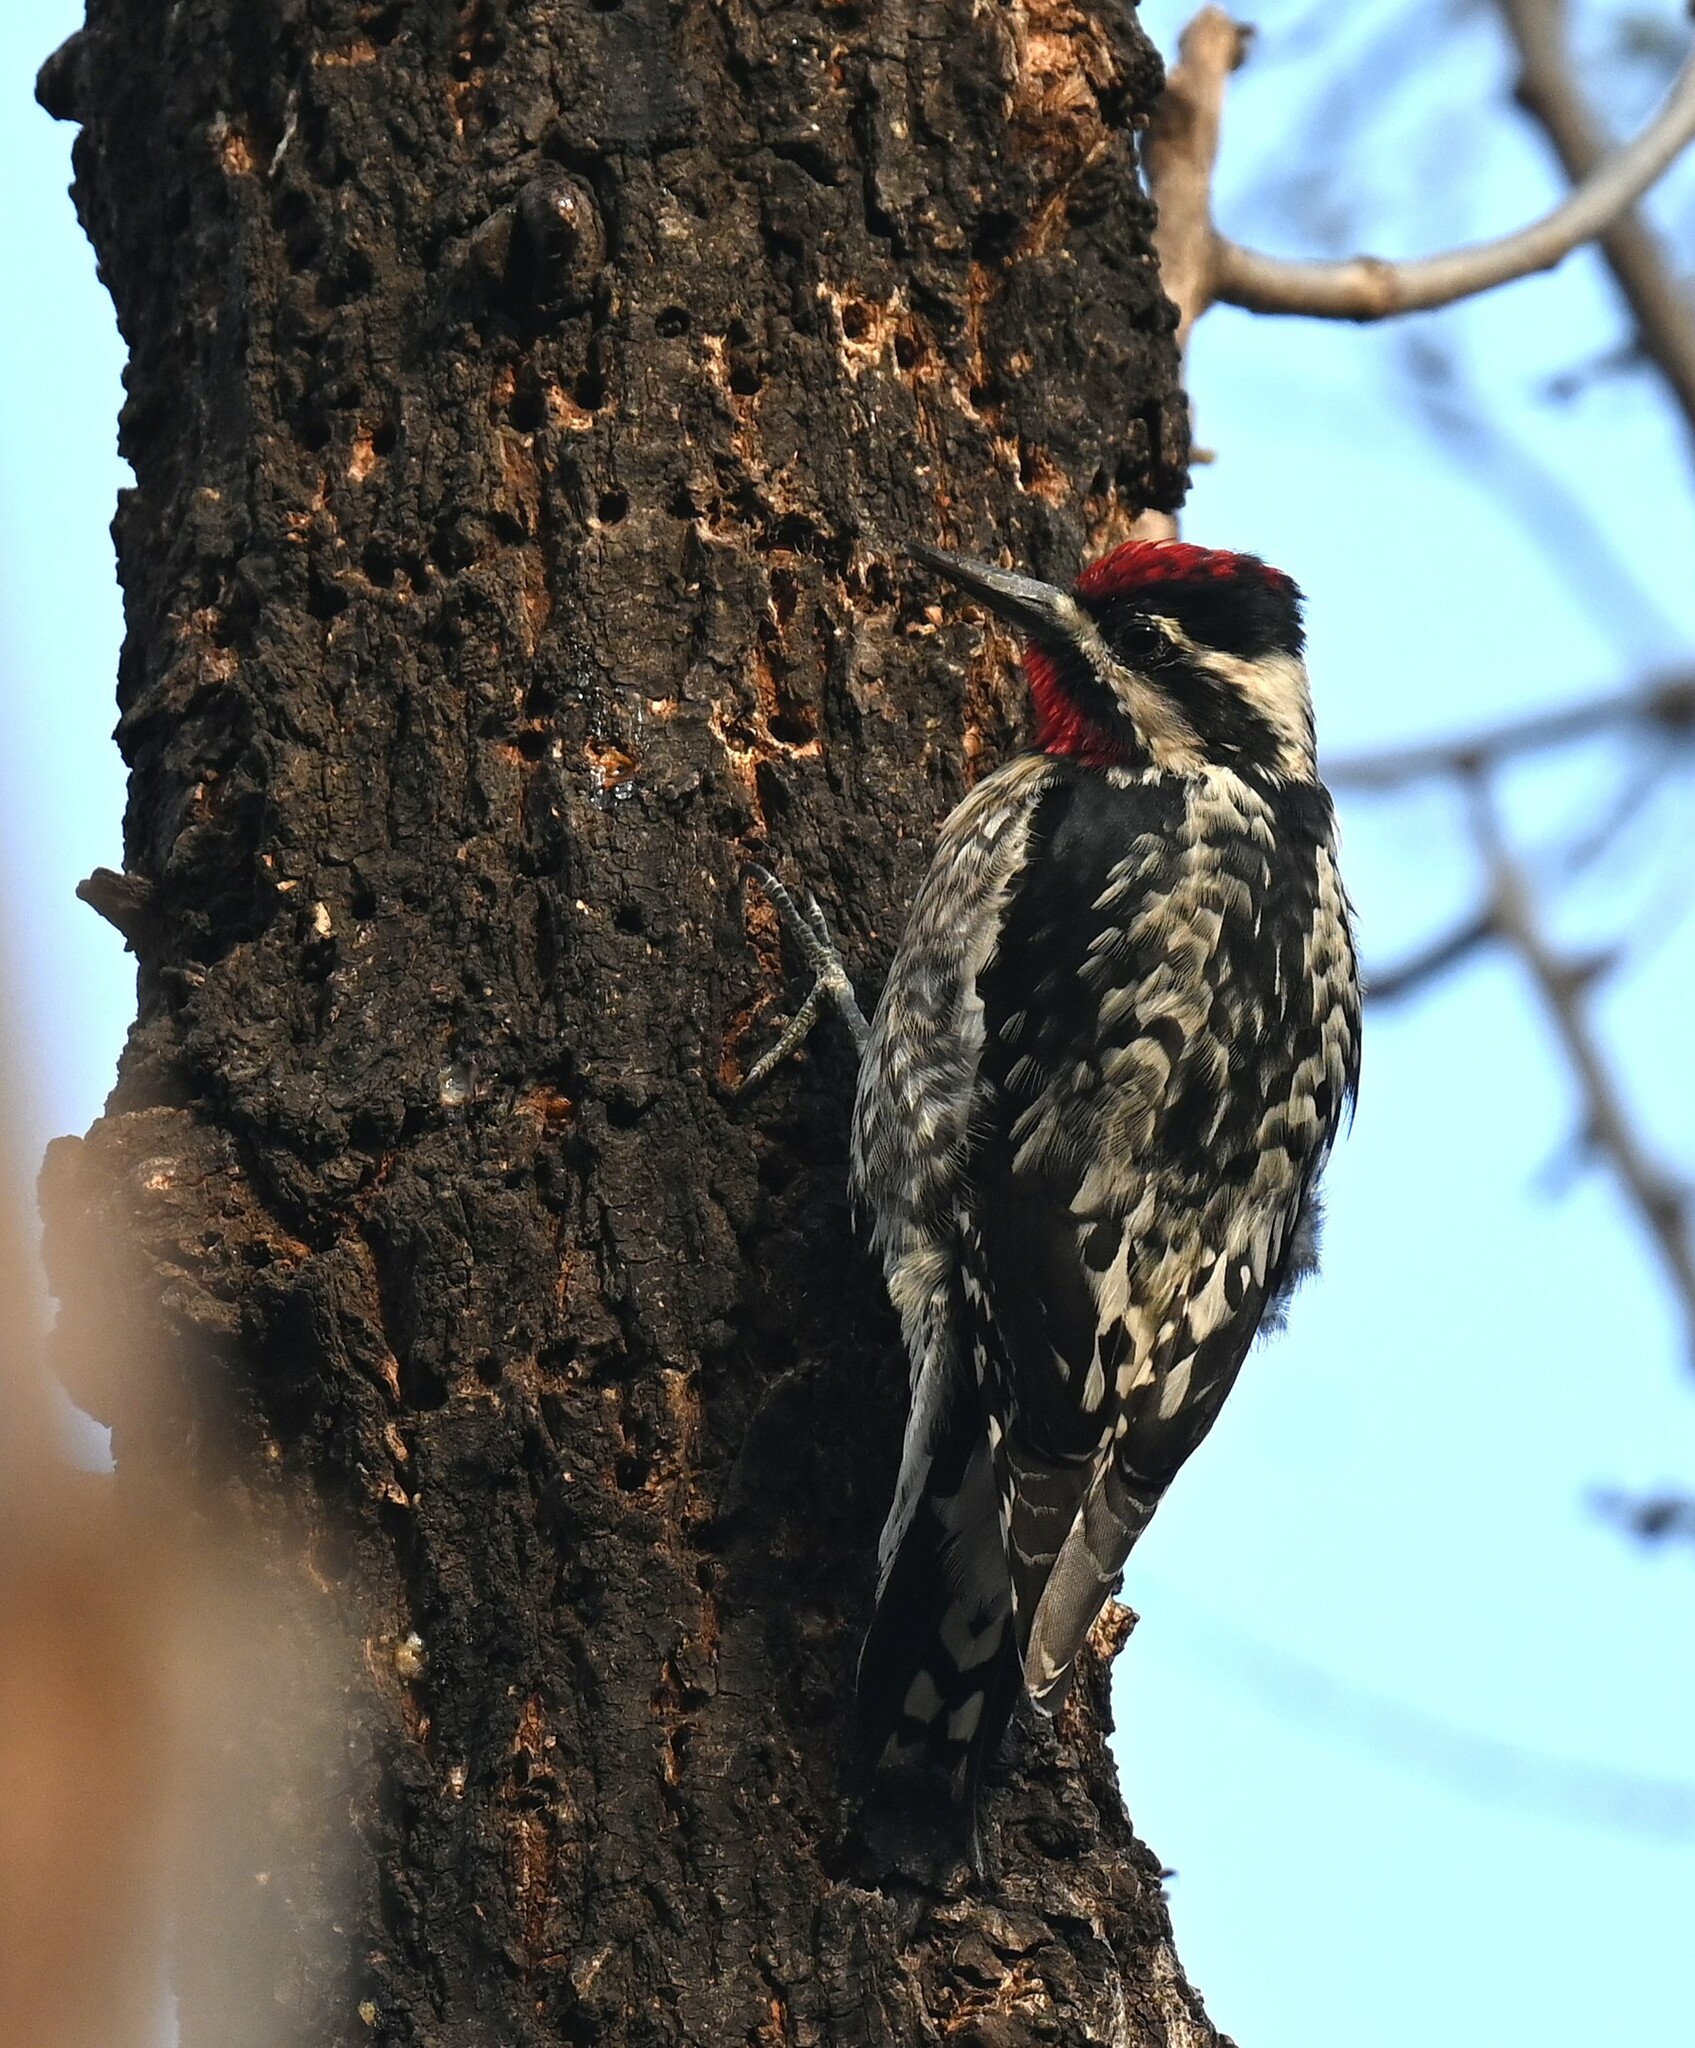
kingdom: Animalia
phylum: Chordata
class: Aves
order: Piciformes
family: Picidae
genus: Sphyrapicus
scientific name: Sphyrapicus varius
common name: Yellow-bellied sapsucker
